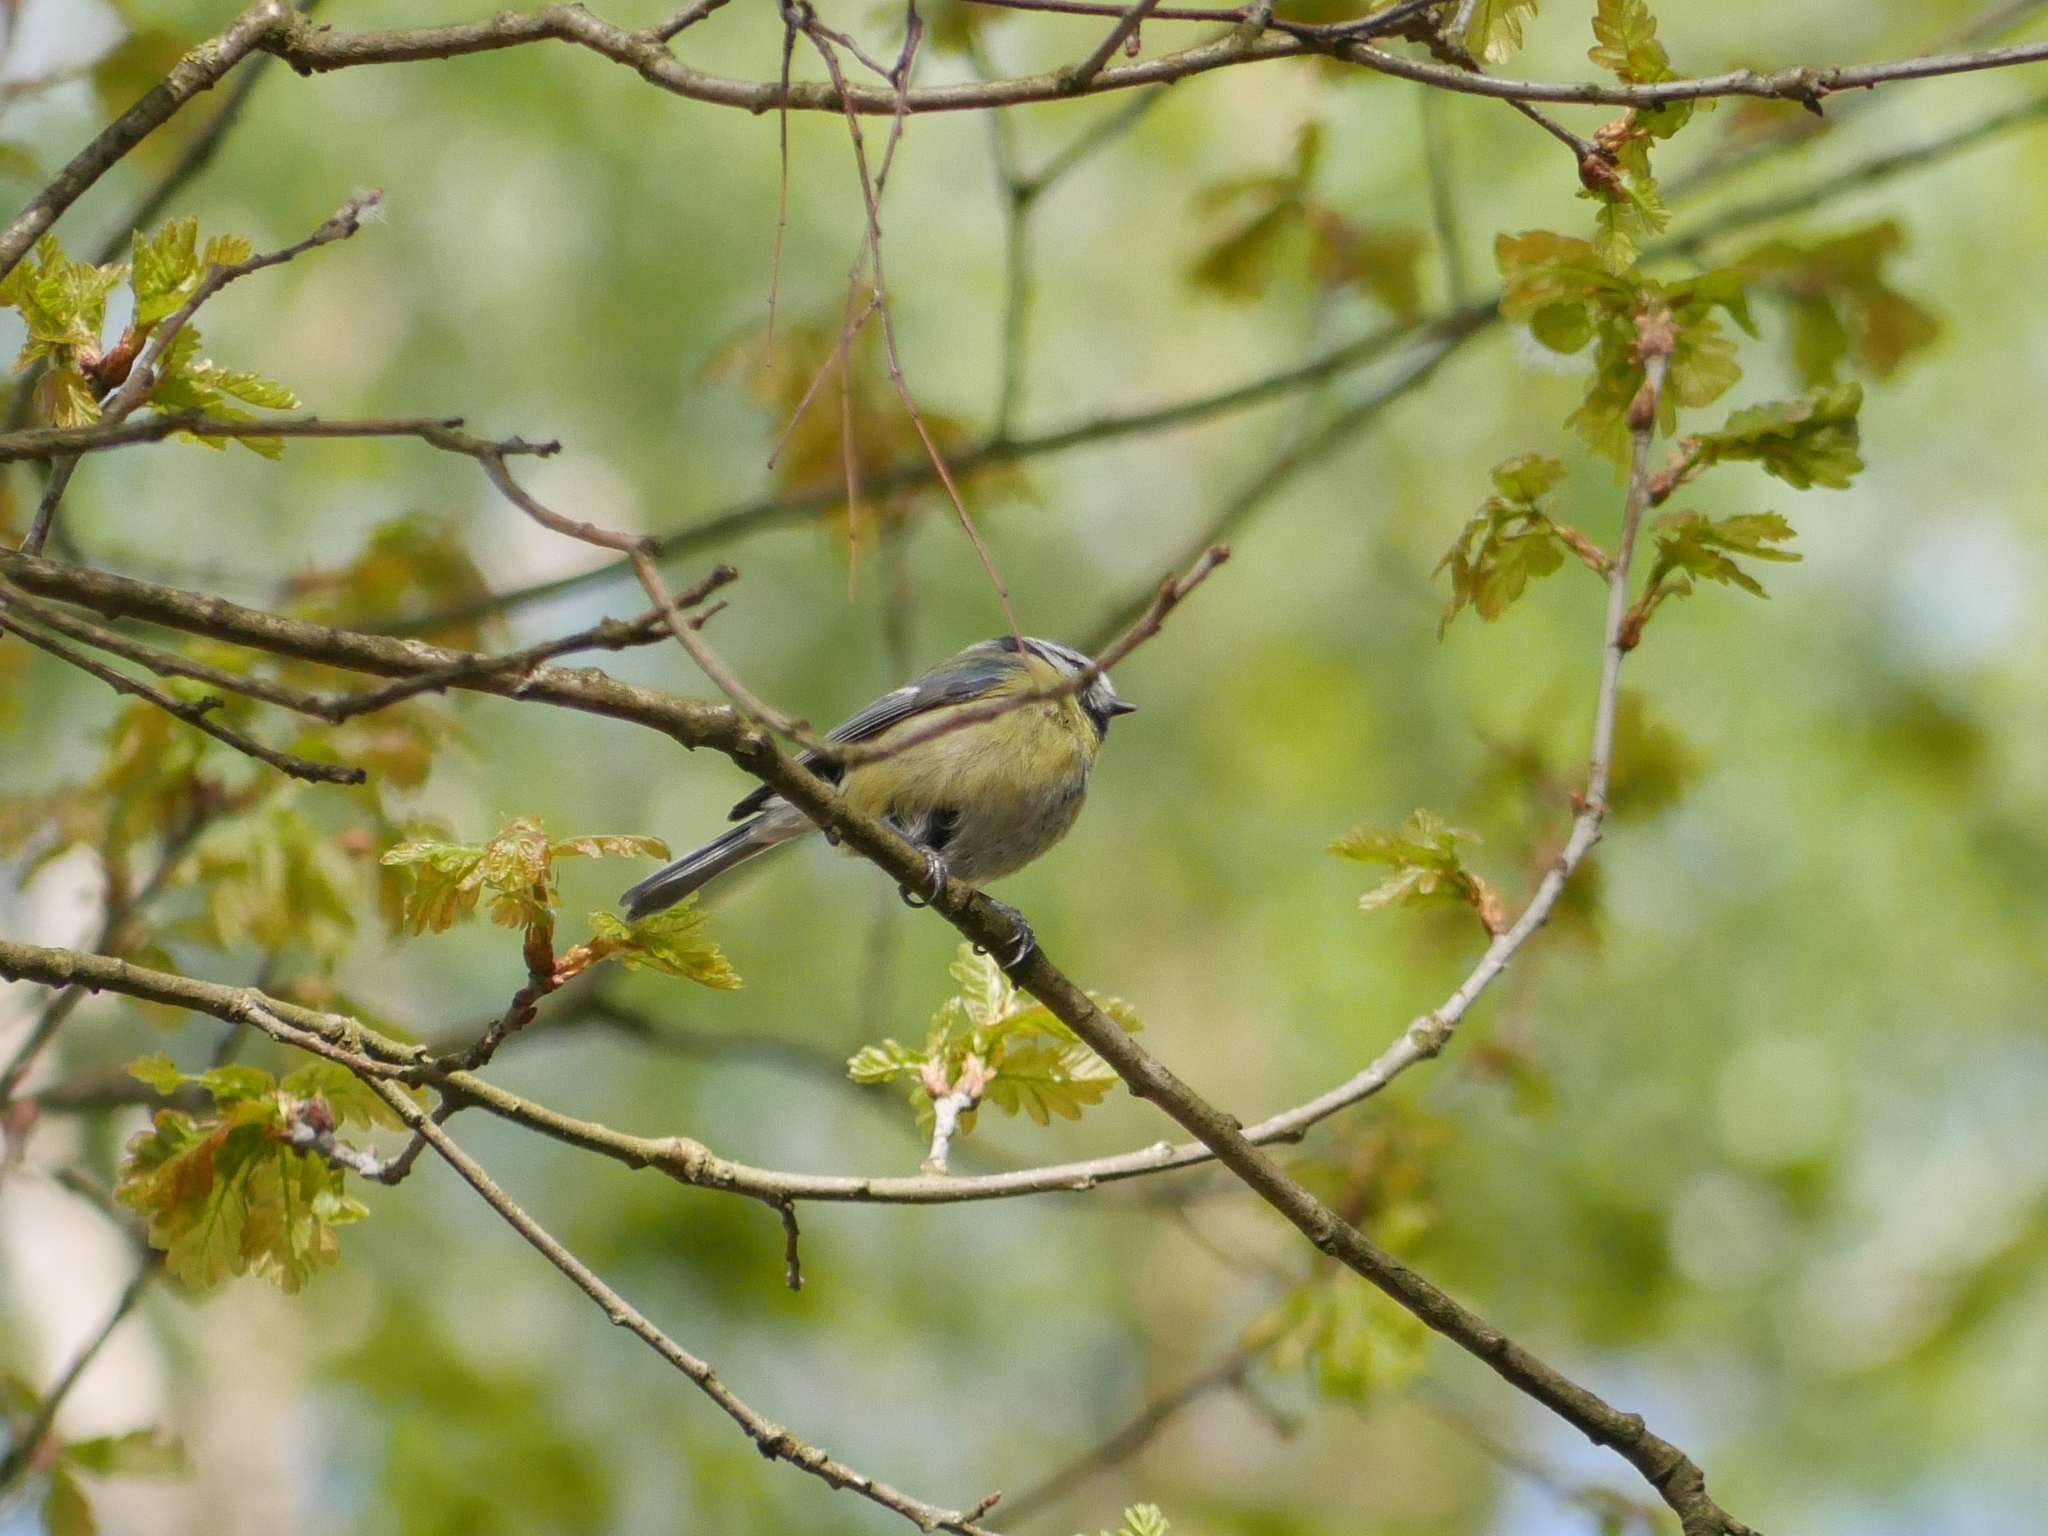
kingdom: Animalia
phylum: Chordata
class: Aves
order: Passeriformes
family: Paridae
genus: Cyanistes
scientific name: Cyanistes caeruleus
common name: Eurasian blue tit
